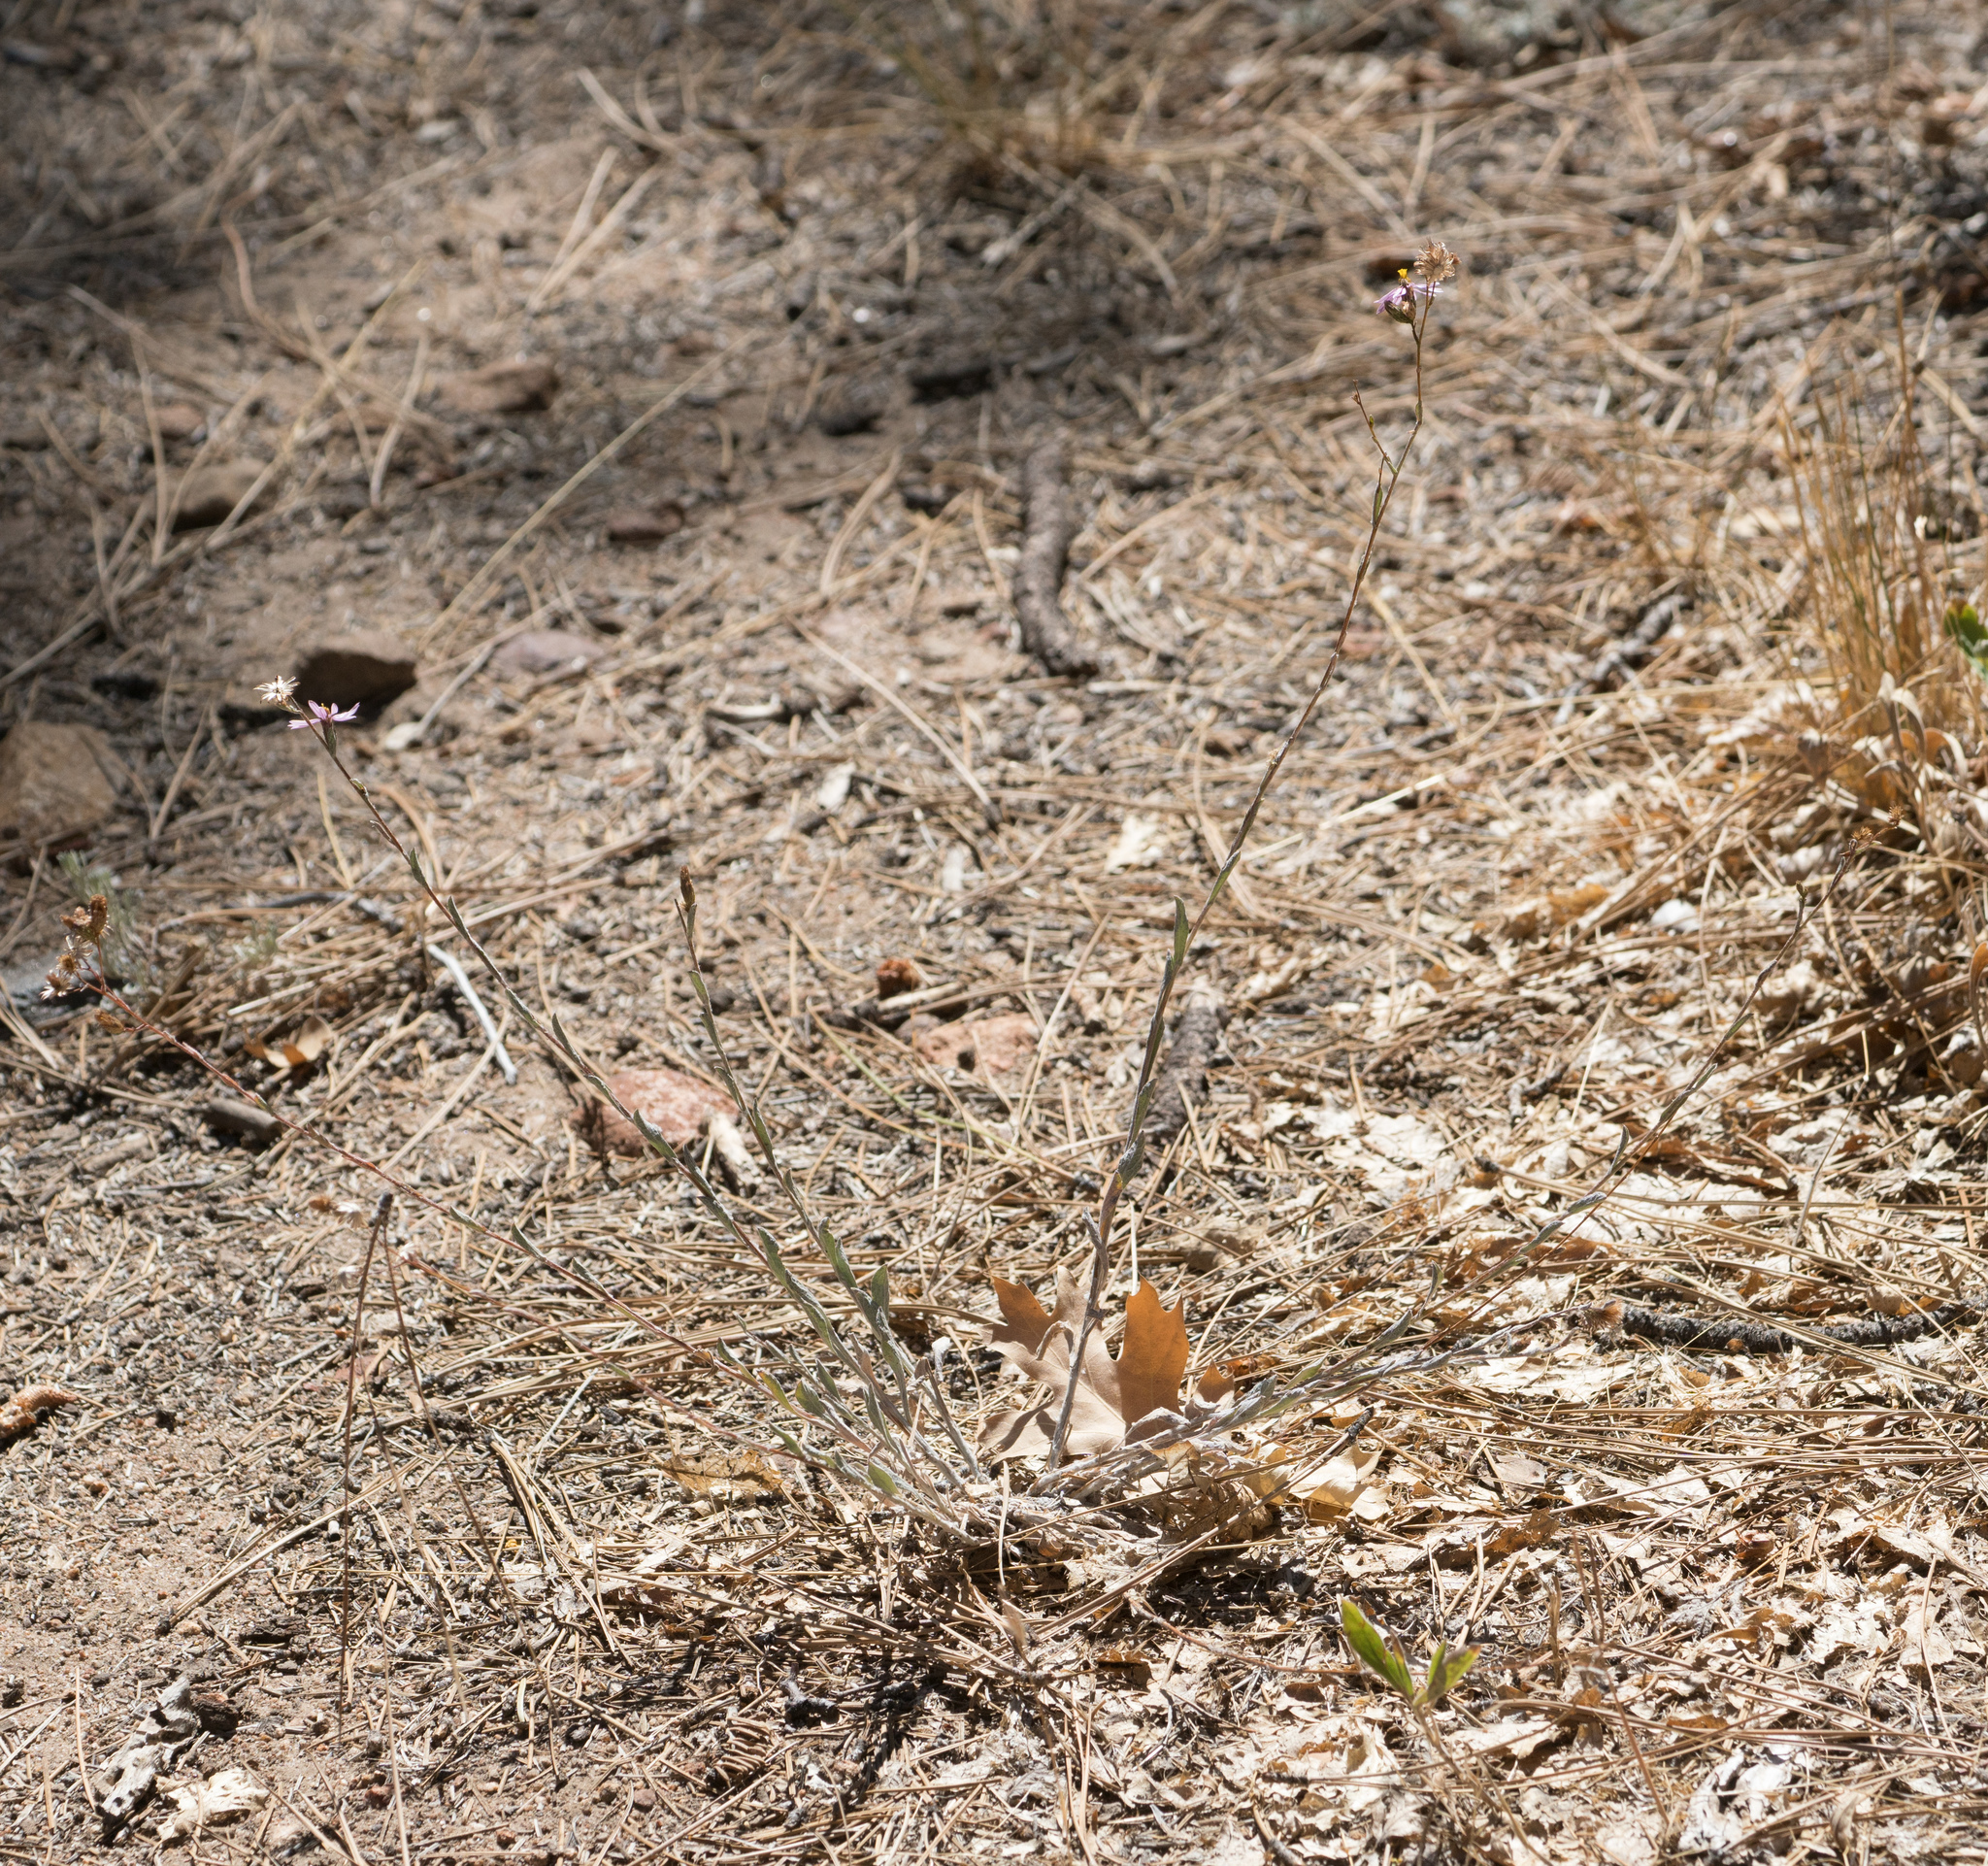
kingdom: Plantae
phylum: Tracheophyta
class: Magnoliopsida
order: Asterales
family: Asteraceae
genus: Corethrogyne
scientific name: Corethrogyne filaginifolia
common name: Sand-aster
